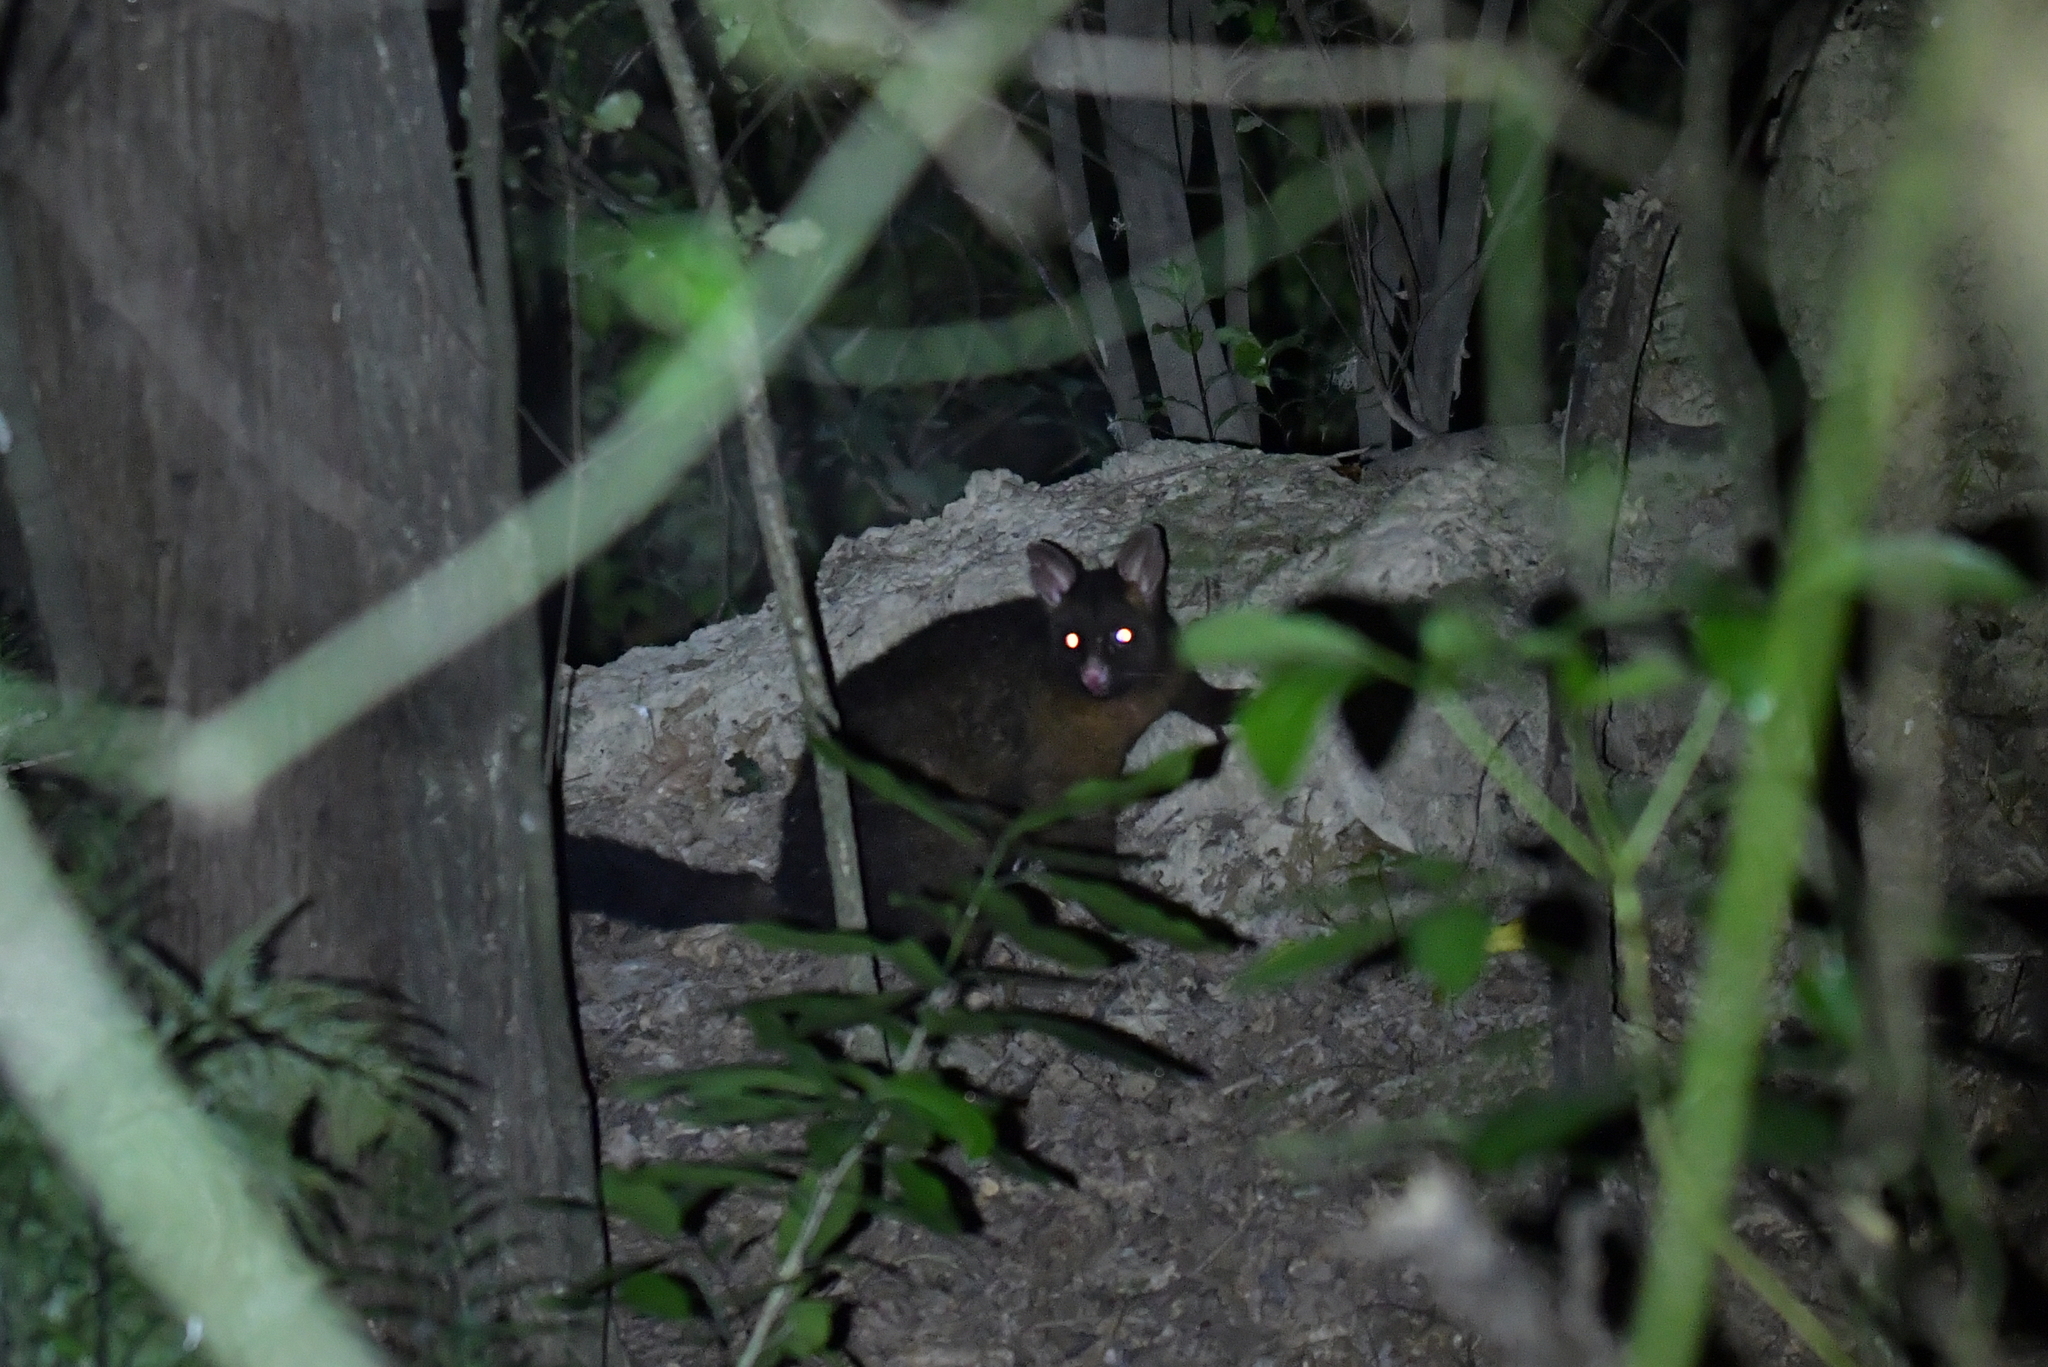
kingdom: Animalia
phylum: Chordata
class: Mammalia
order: Diprotodontia
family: Phalangeridae
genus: Trichosurus
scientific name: Trichosurus vulpecula
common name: Common brushtail
